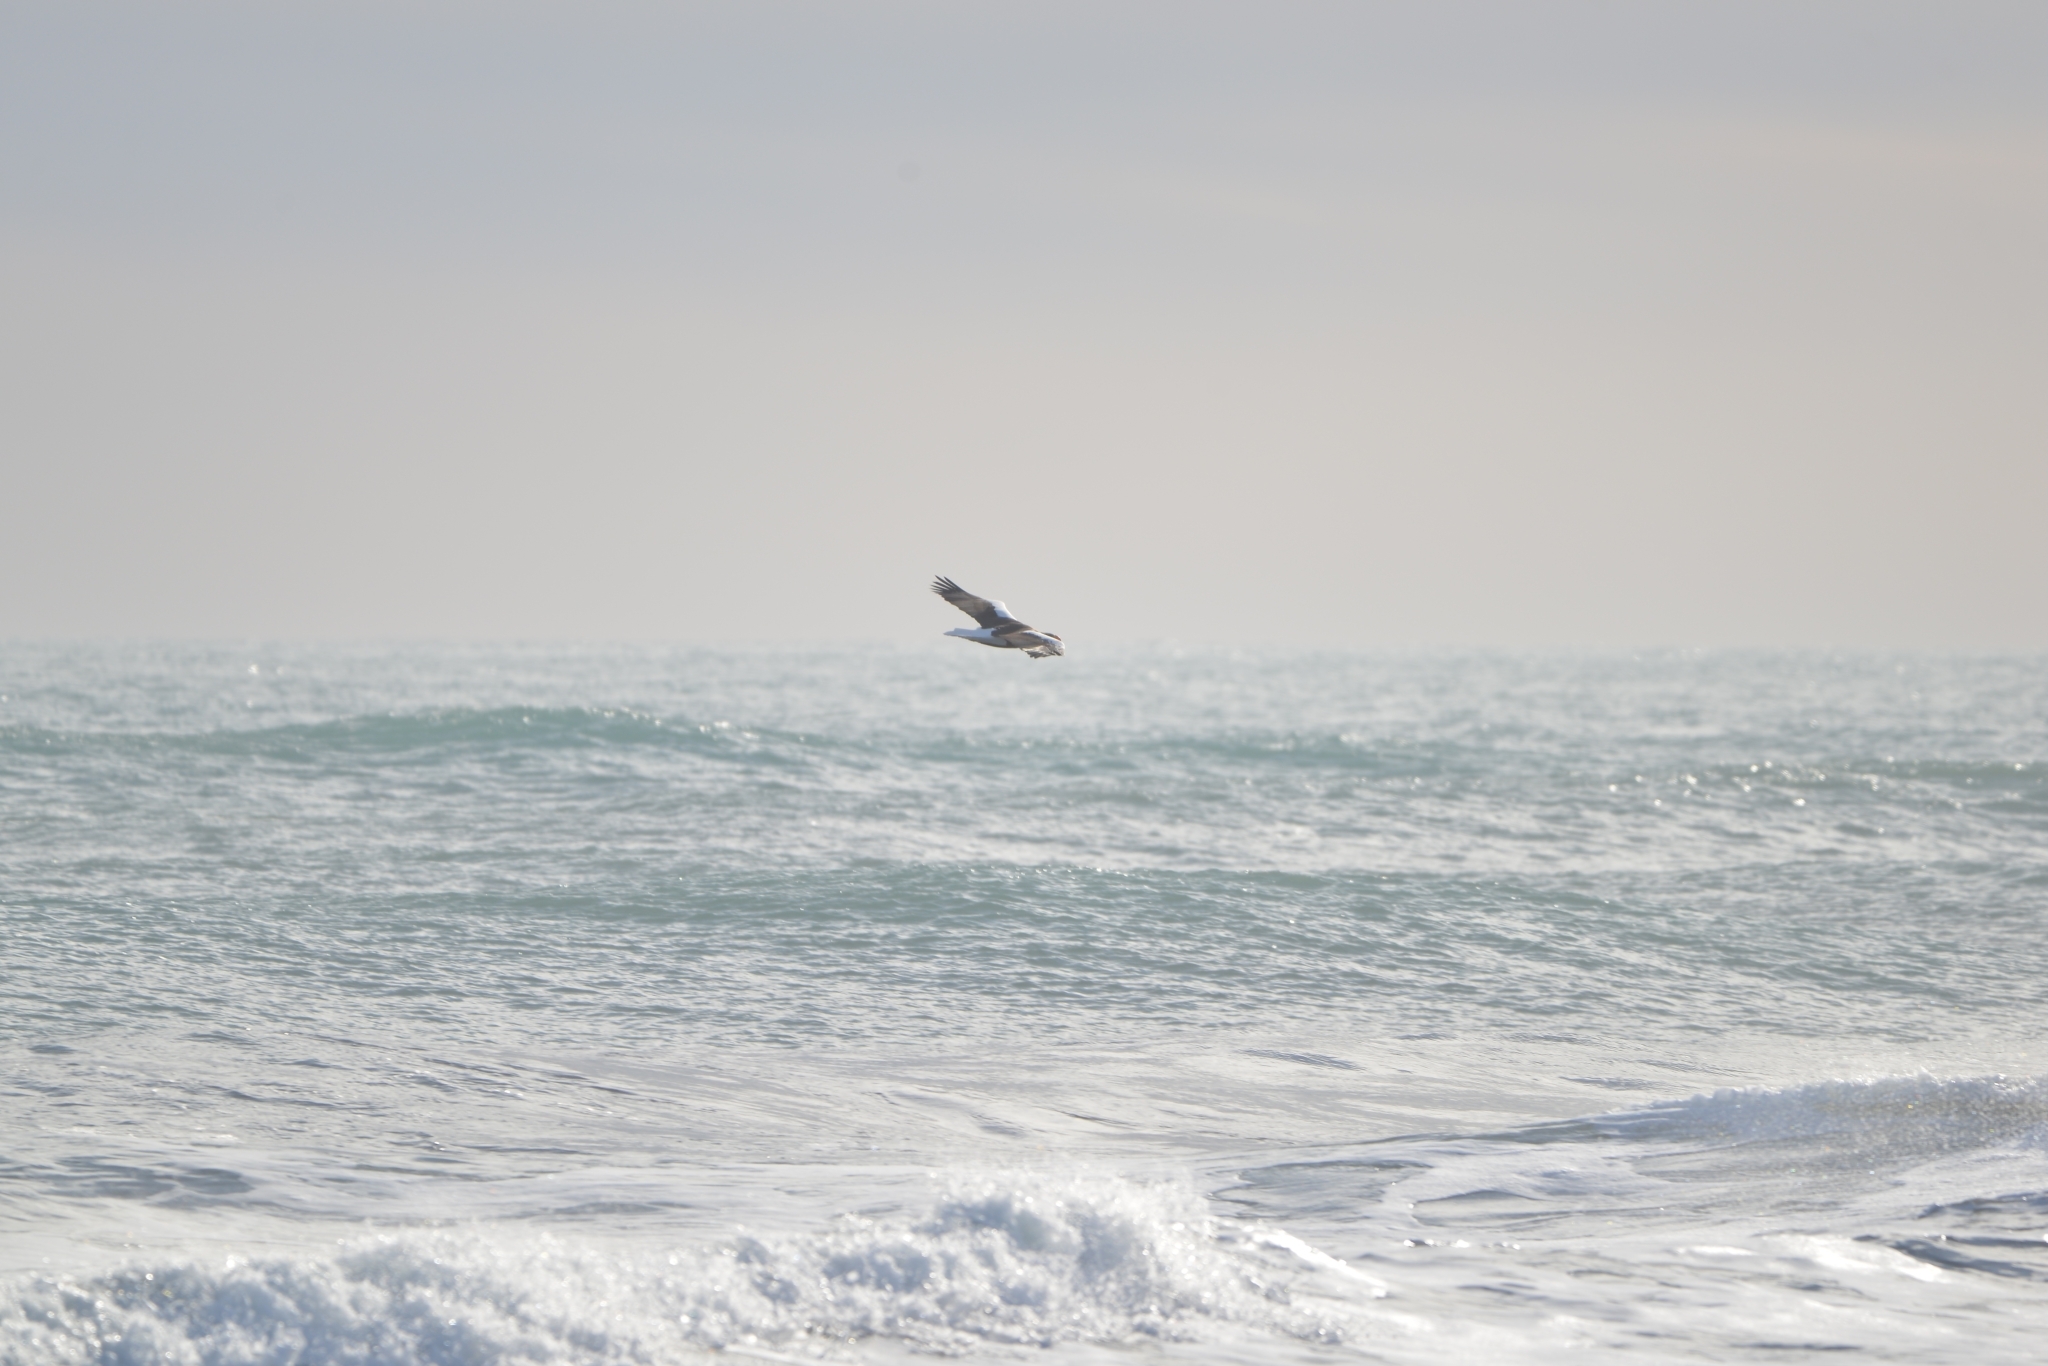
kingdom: Animalia
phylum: Chordata
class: Aves
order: Accipitriformes
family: Accipitridae
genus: Haliaeetus
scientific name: Haliaeetus pelagicus
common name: Steller's sea eagle
